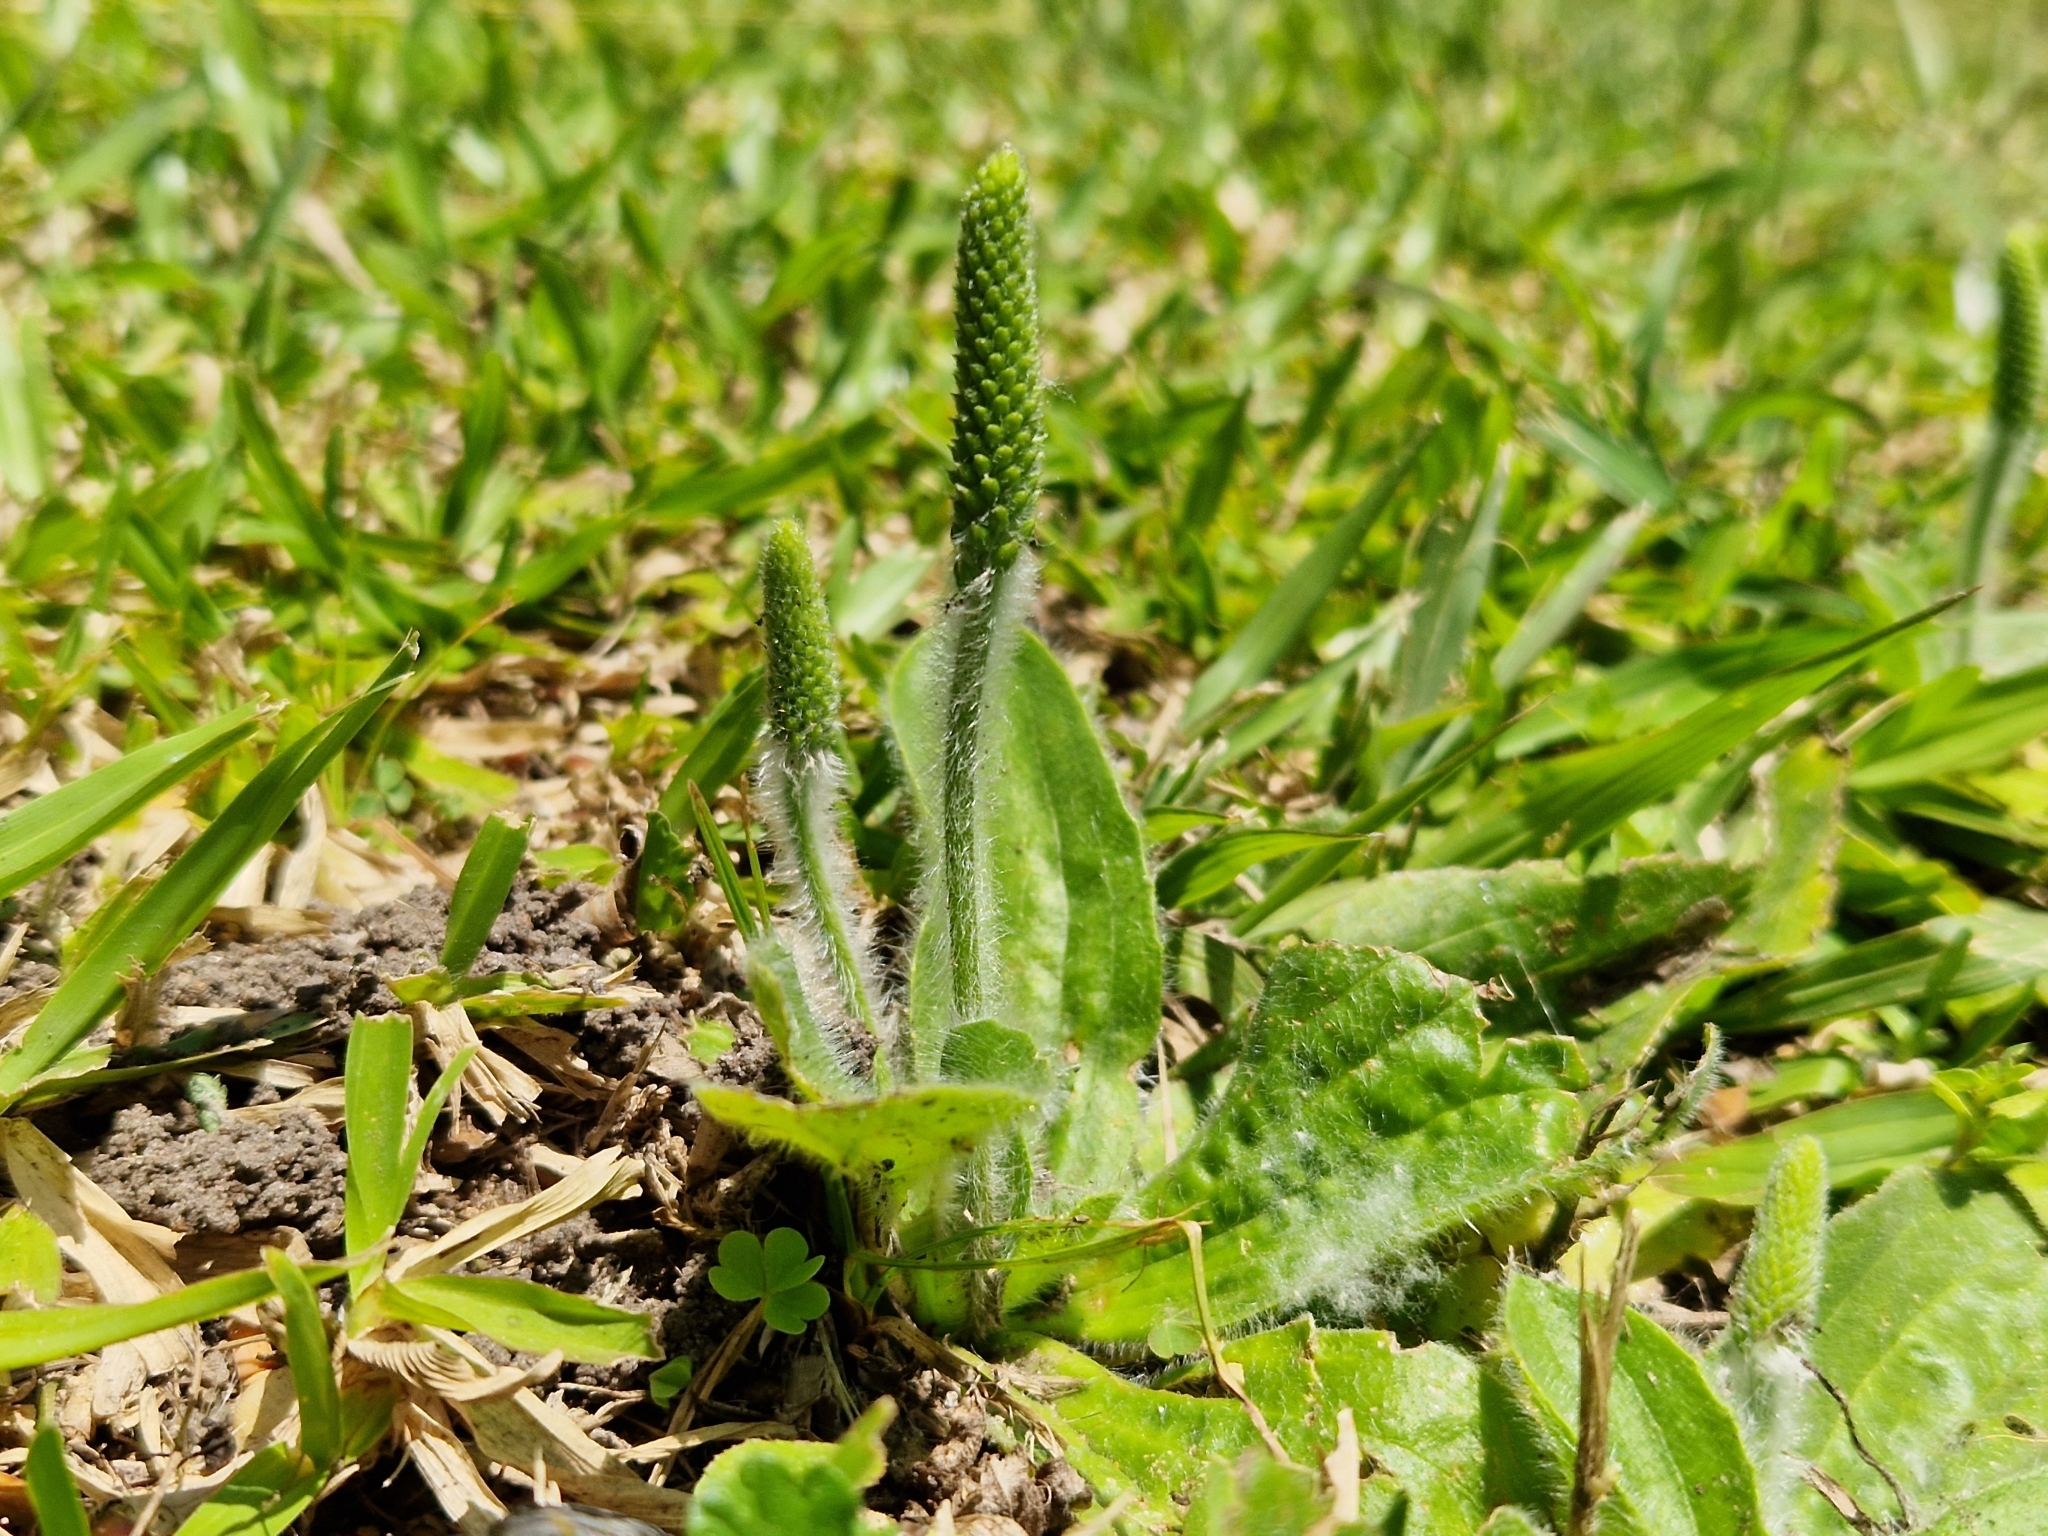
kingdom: Plantae
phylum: Tracheophyta
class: Magnoliopsida
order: Lamiales
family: Plantaginaceae
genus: Plantago
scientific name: Plantago tomentosa
